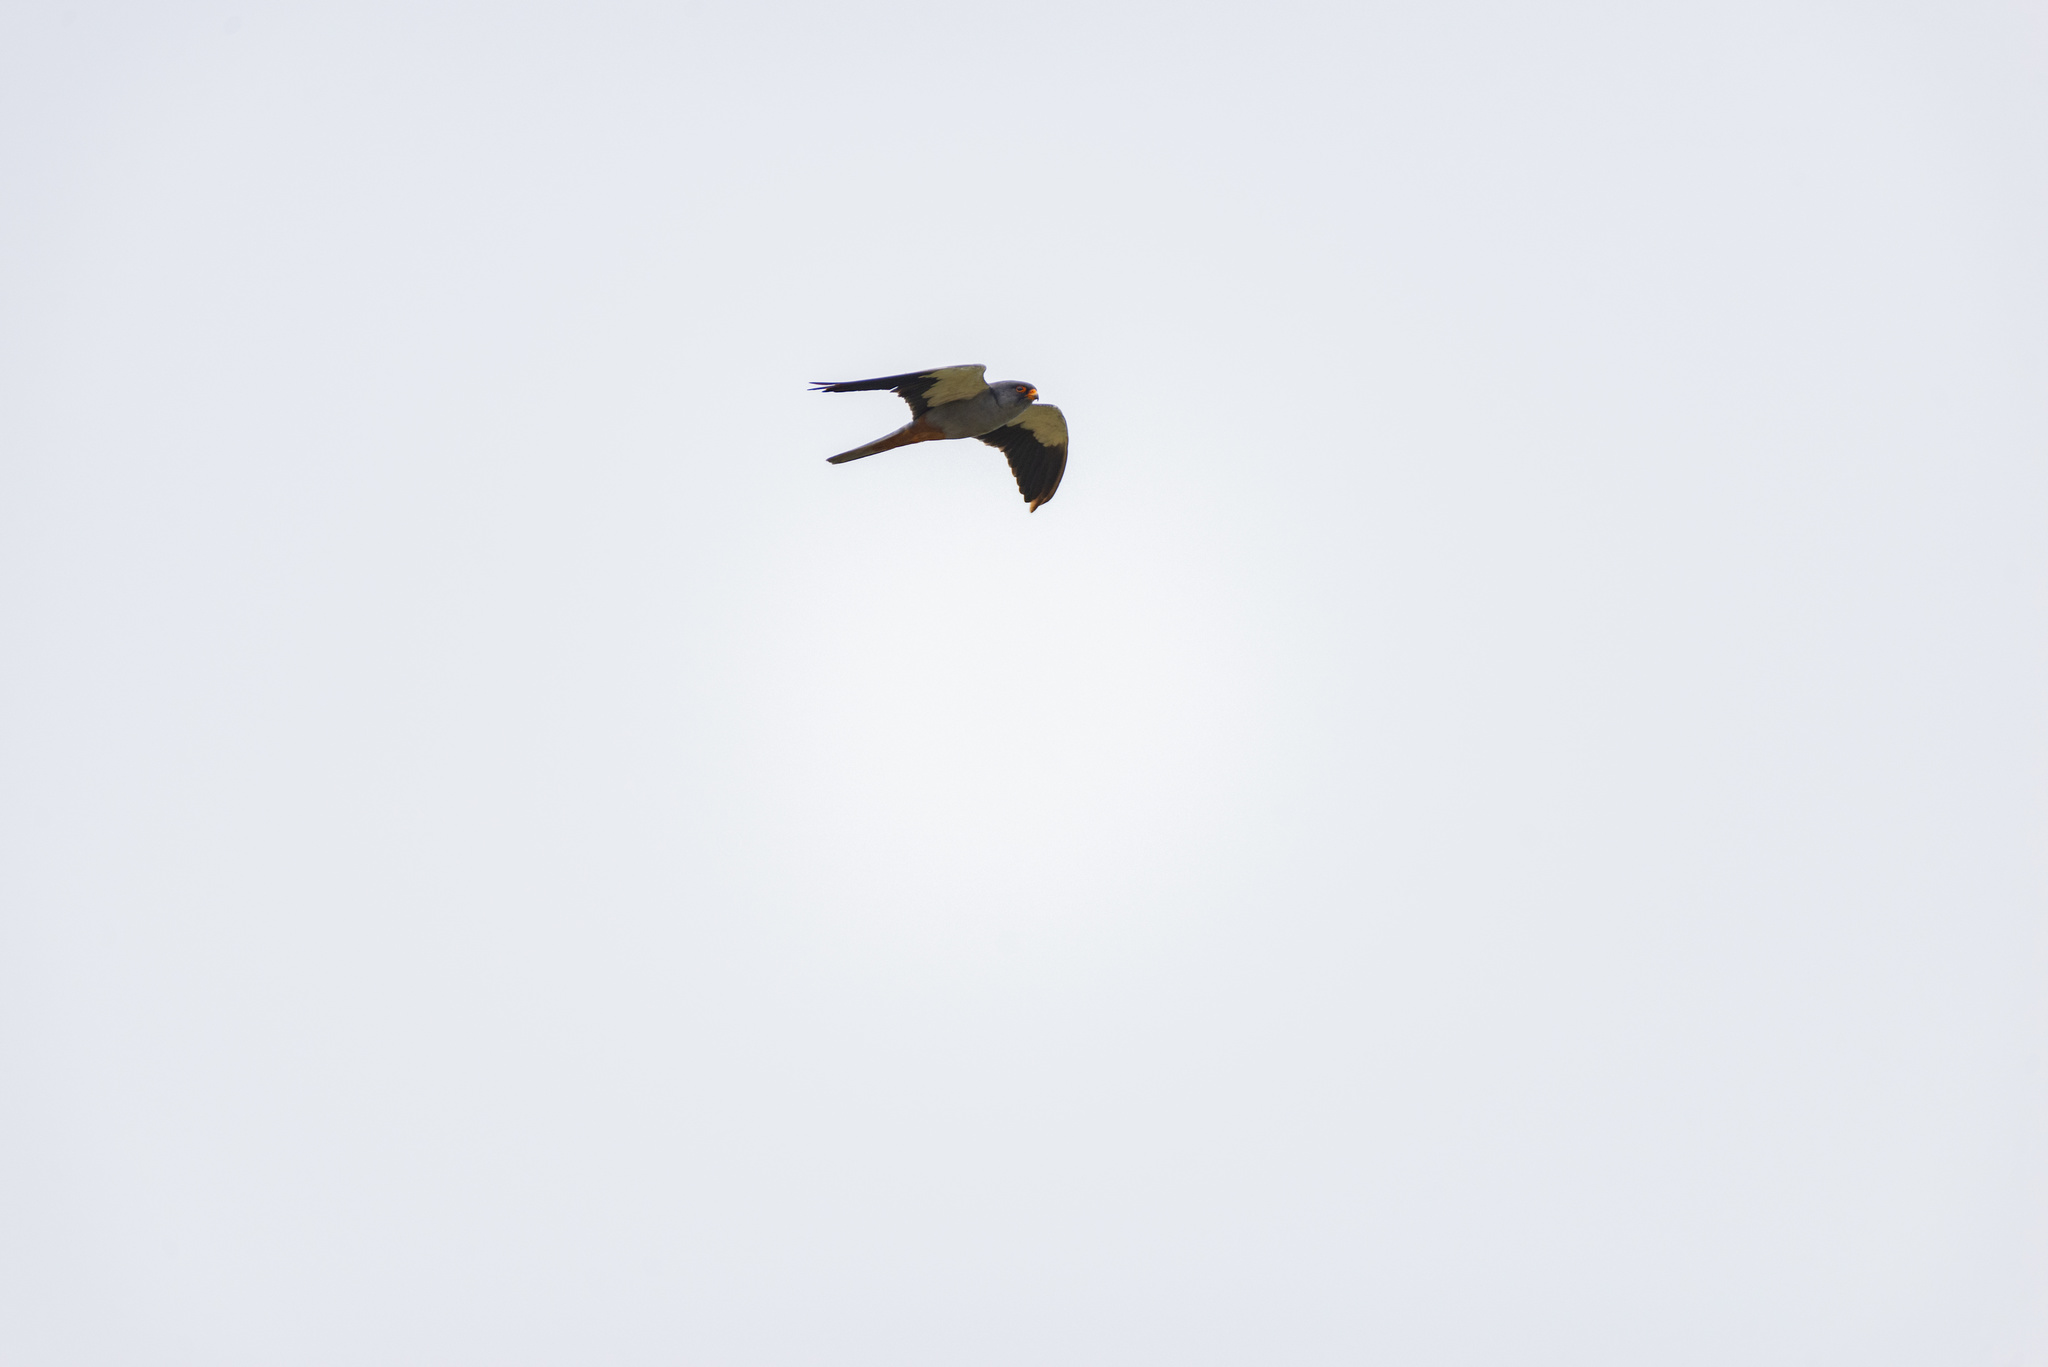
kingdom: Animalia
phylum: Chordata
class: Aves
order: Falconiformes
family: Falconidae
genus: Falco
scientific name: Falco amurensis
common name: Amur falcon
